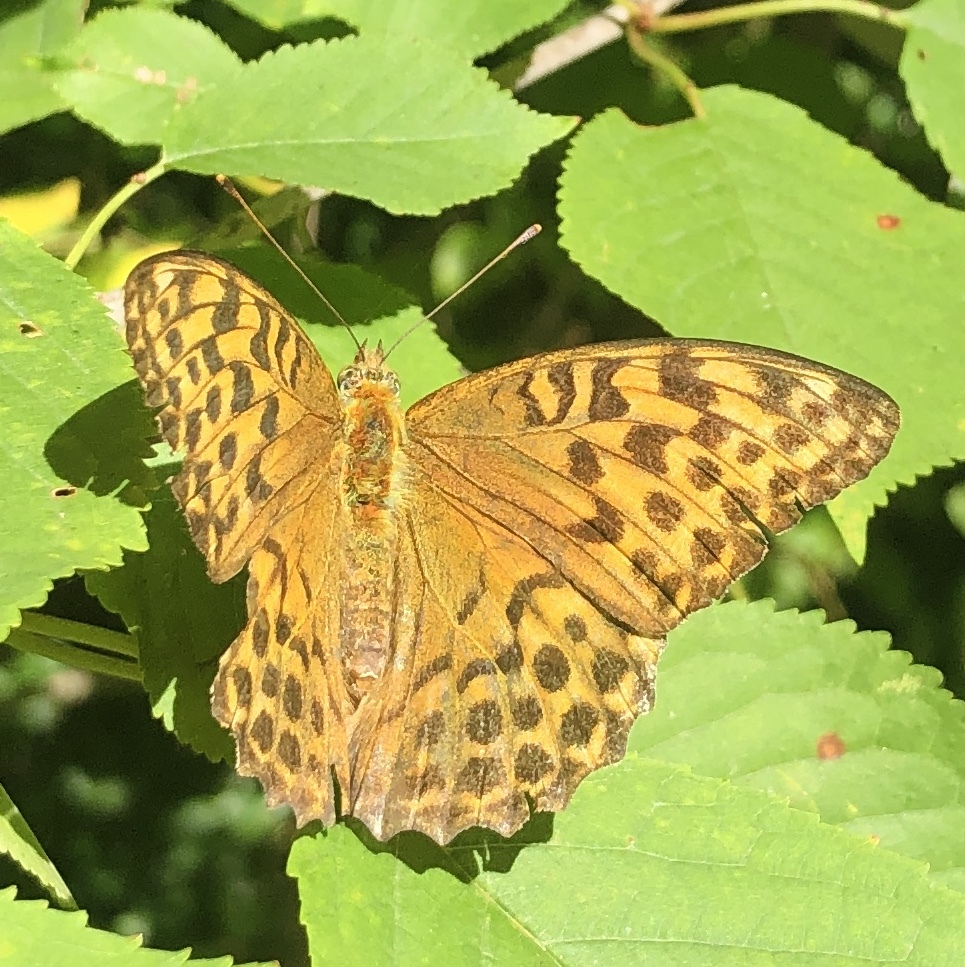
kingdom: Animalia
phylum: Arthropoda
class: Insecta
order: Lepidoptera
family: Nymphalidae
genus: Argynnis
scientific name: Argynnis paphia
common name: Silver-washed fritillary
